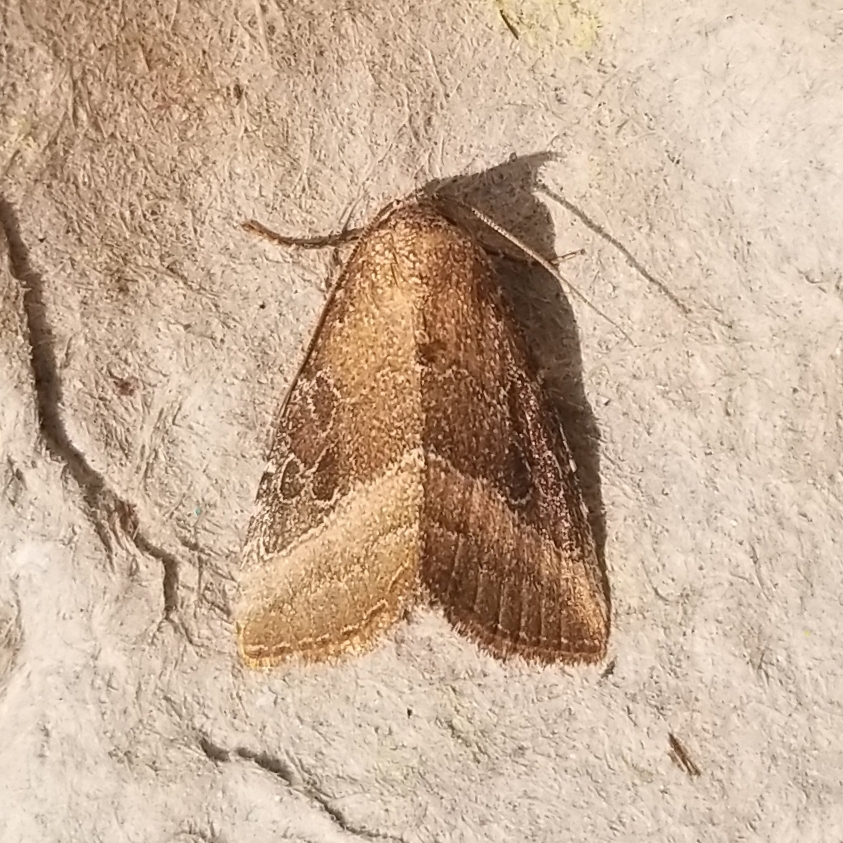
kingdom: Animalia
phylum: Arthropoda
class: Insecta
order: Lepidoptera
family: Noctuidae
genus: Ogdoconta
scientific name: Ogdoconta cinereola
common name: Common pinkband
